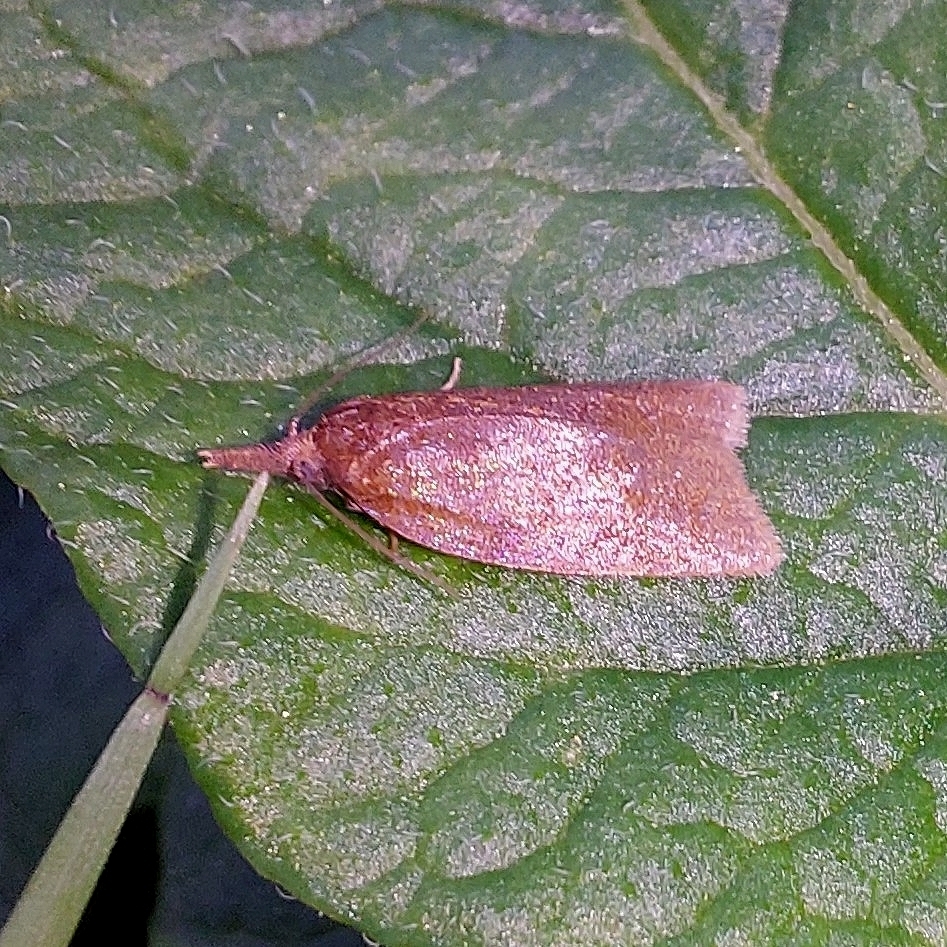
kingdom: Animalia
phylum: Arthropoda
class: Insecta
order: Lepidoptera
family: Tortricidae
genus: Sparganothis
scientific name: Sparganothis pilleriana
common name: Vine leaf-roller tortrix, long-nosed twist
